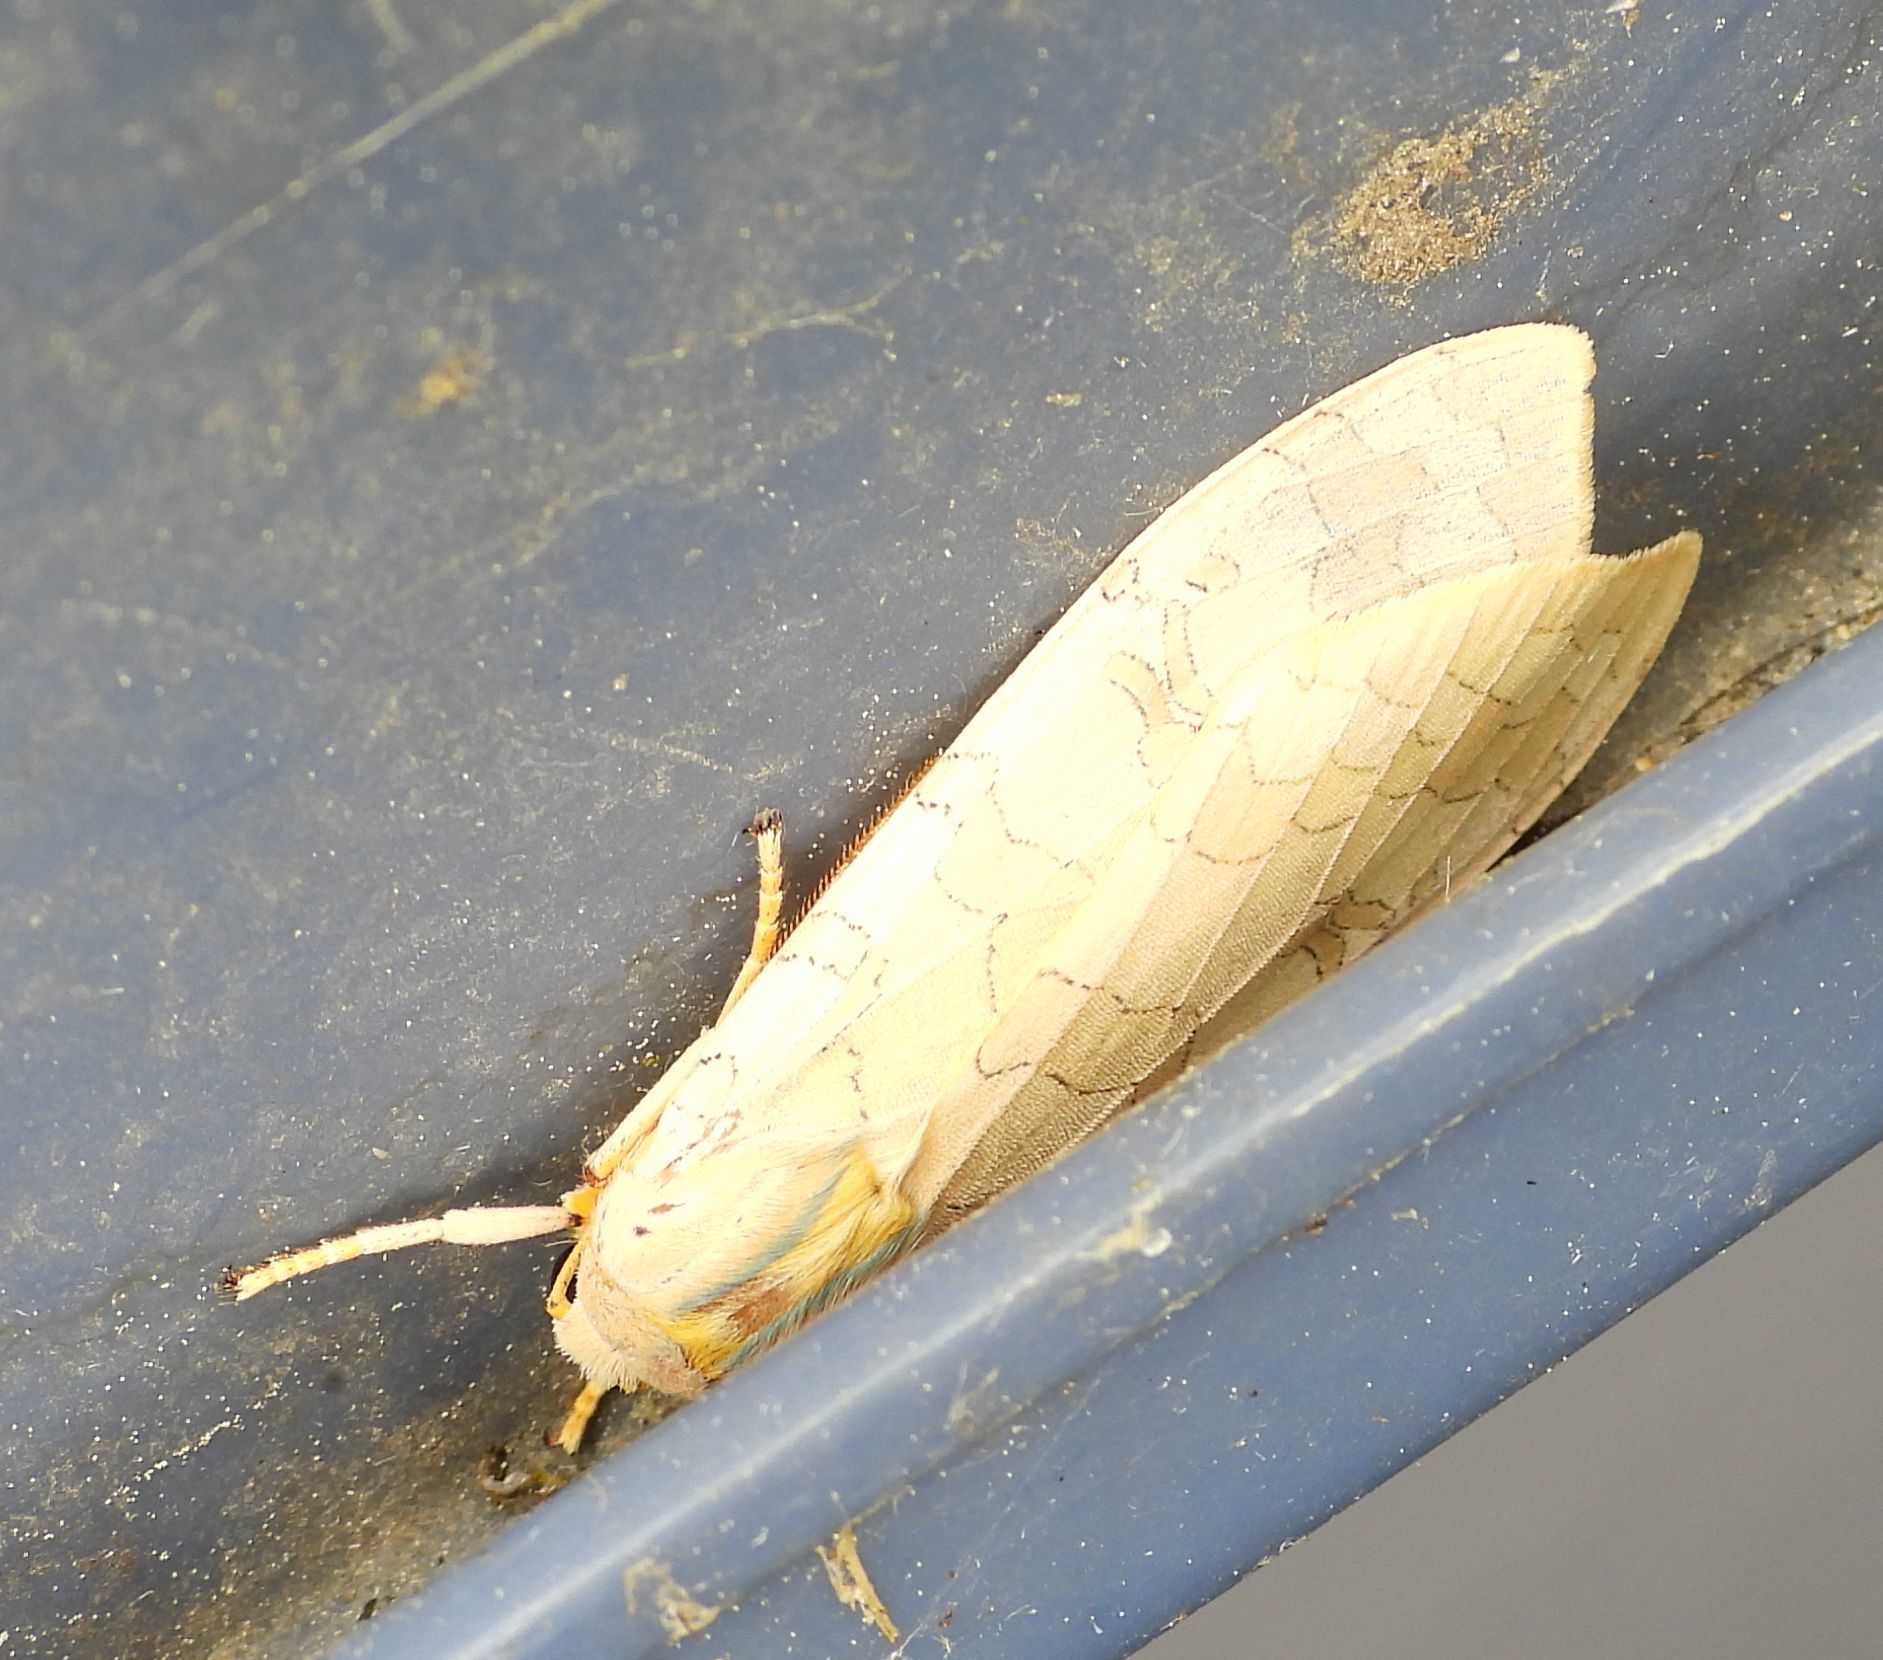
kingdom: Animalia
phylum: Arthropoda
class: Insecta
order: Lepidoptera
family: Erebidae
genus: Halysidota
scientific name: Halysidota tessellaris
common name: Banded tussock moth
